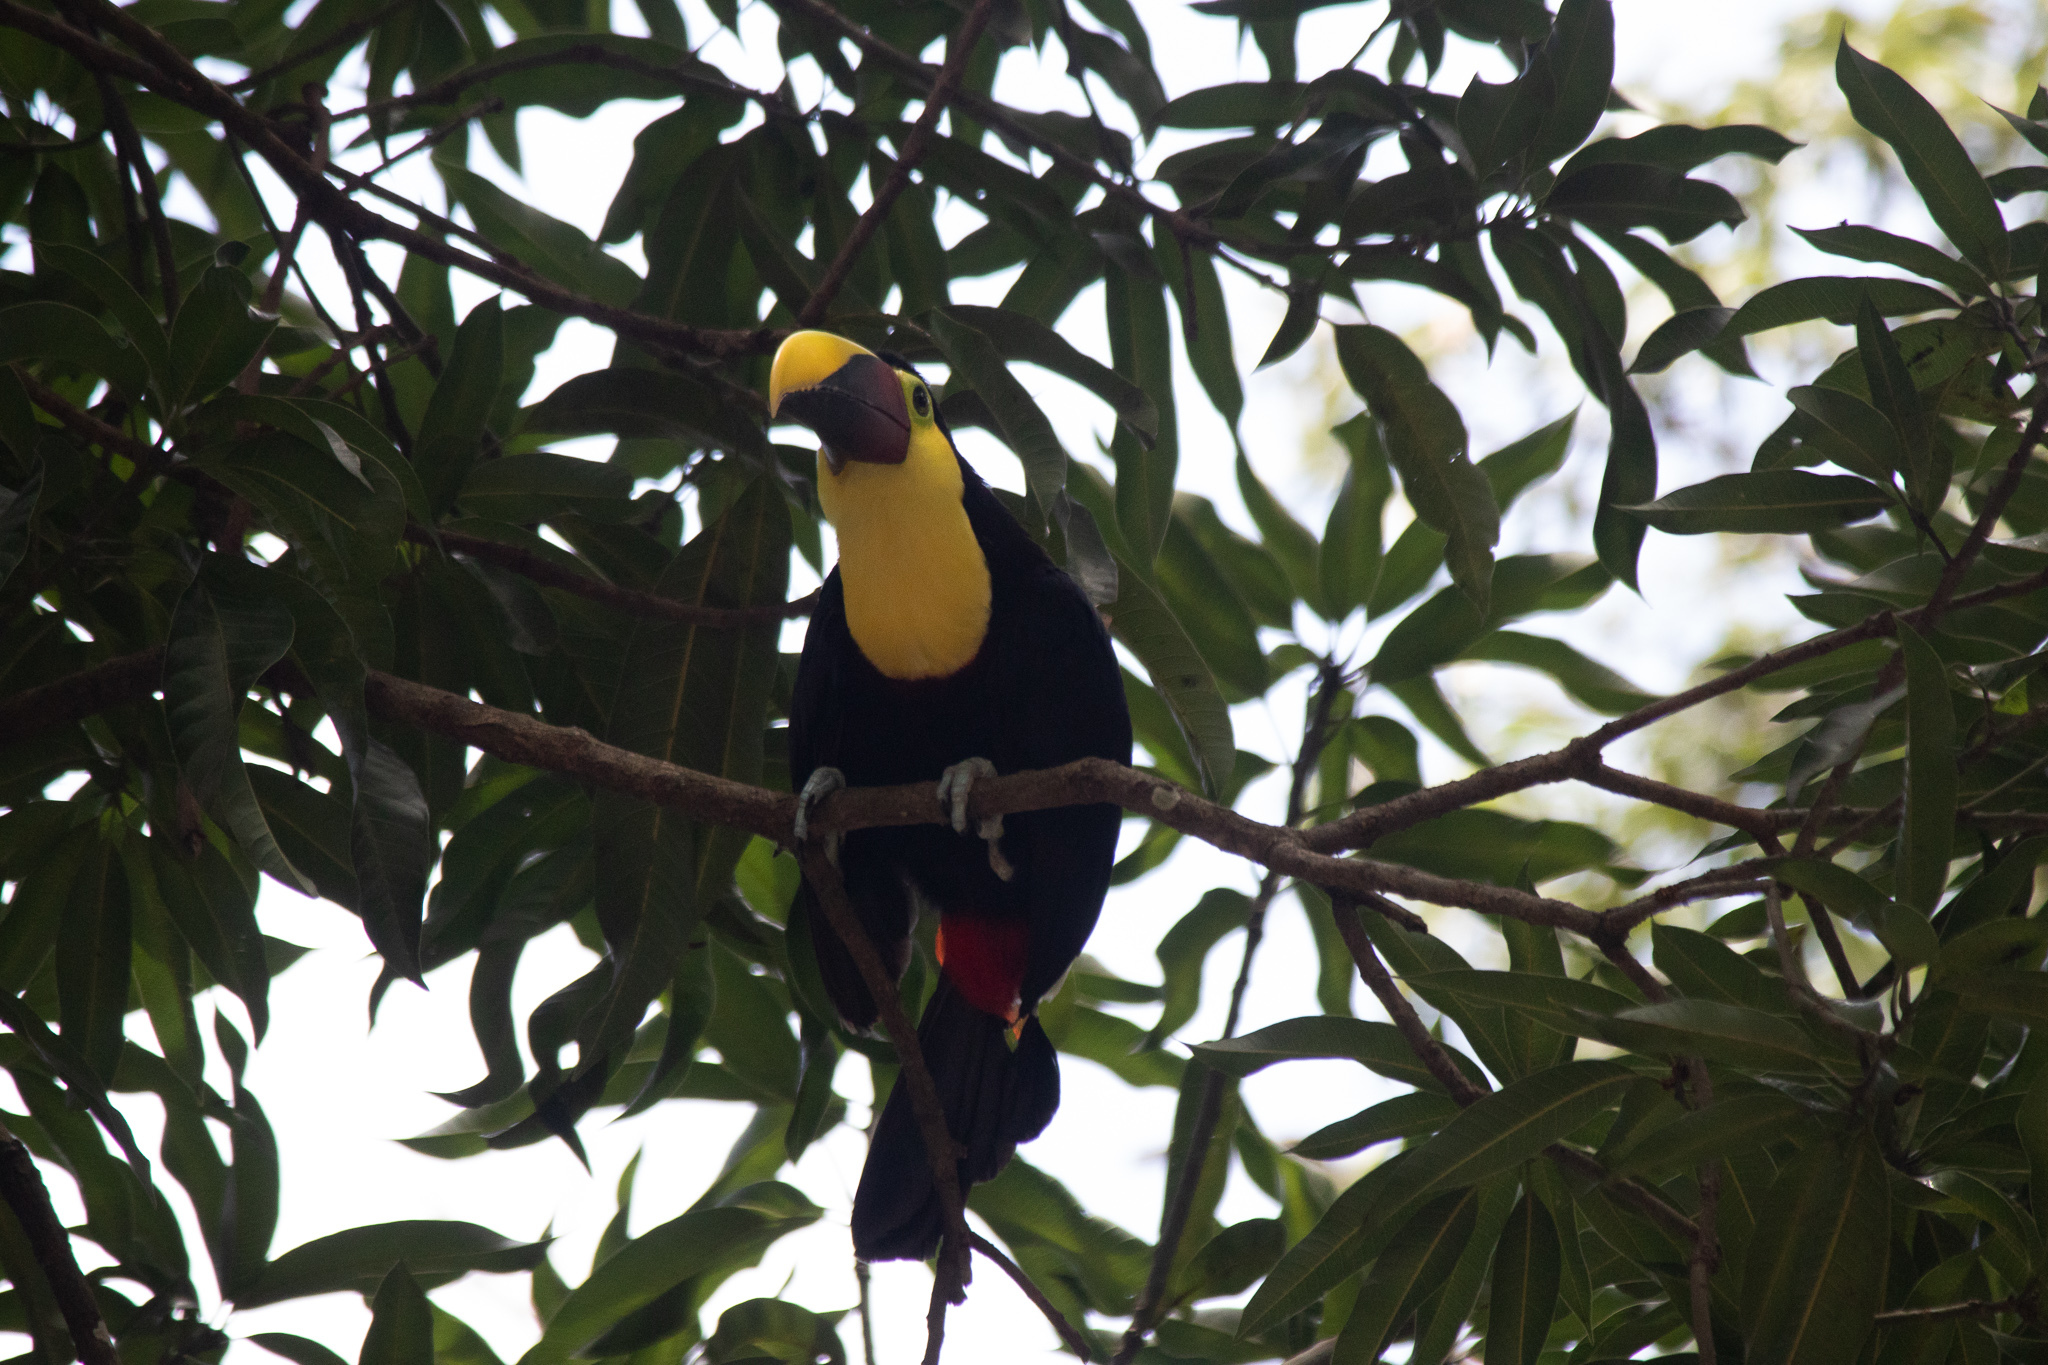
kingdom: Animalia
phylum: Chordata
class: Aves
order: Piciformes
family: Ramphastidae
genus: Ramphastos
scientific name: Ramphastos ambiguus
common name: Yellow-throated toucan
